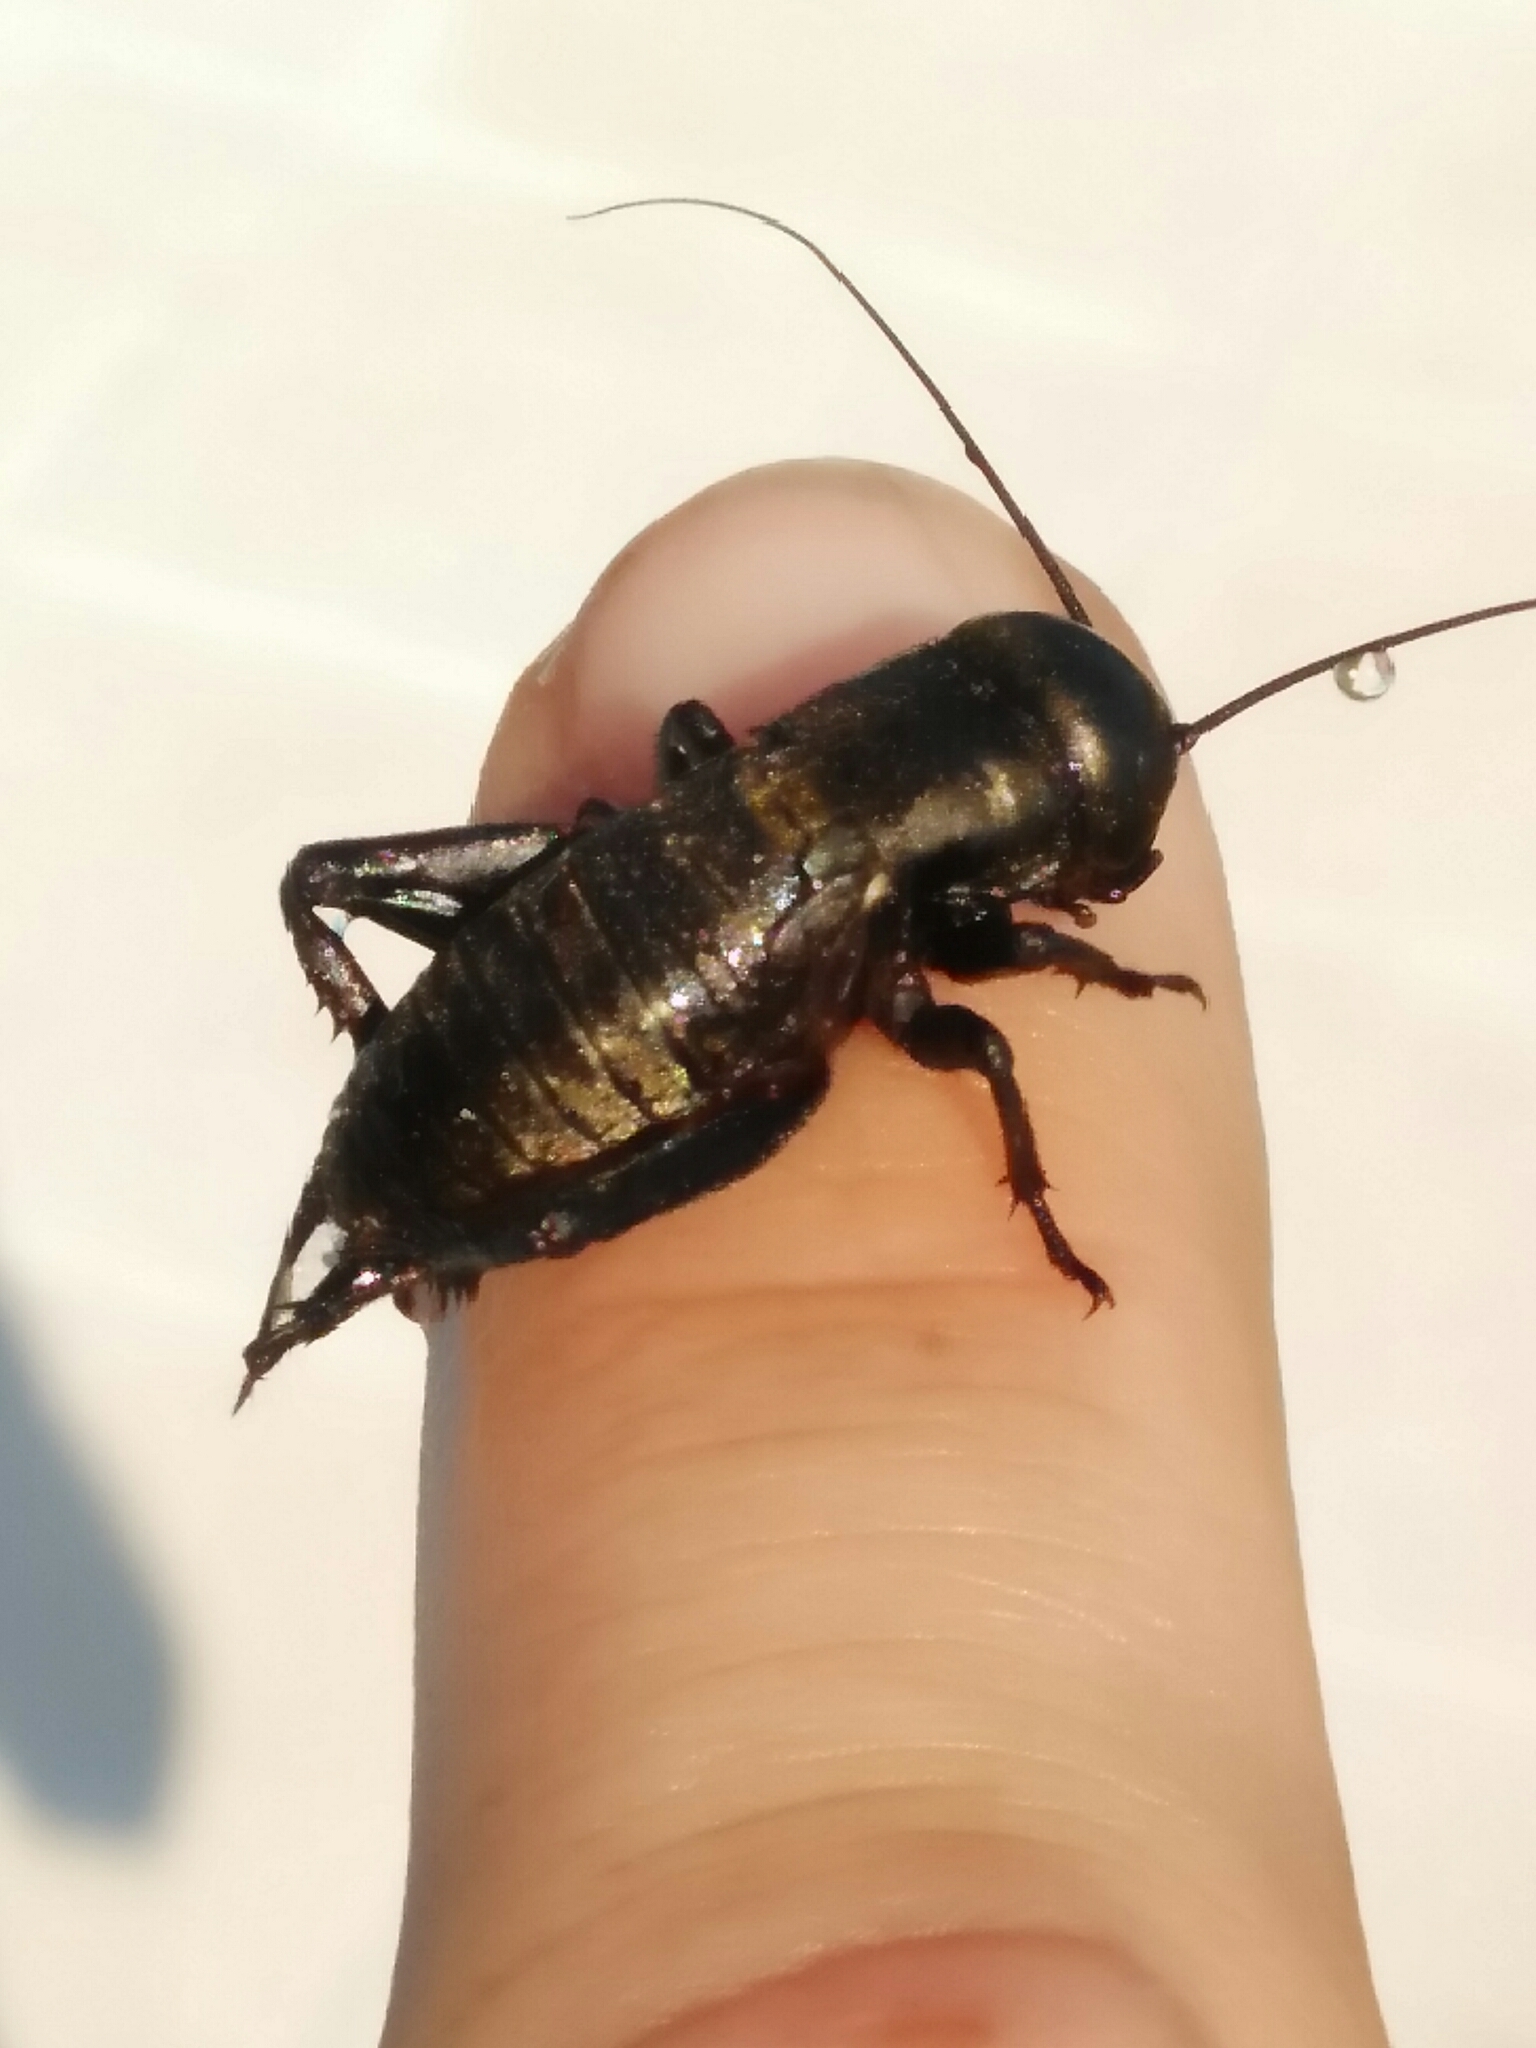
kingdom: Animalia
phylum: Arthropoda
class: Insecta
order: Orthoptera
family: Gryllidae
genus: Gryllus
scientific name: Gryllus campestris
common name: Field cricket
